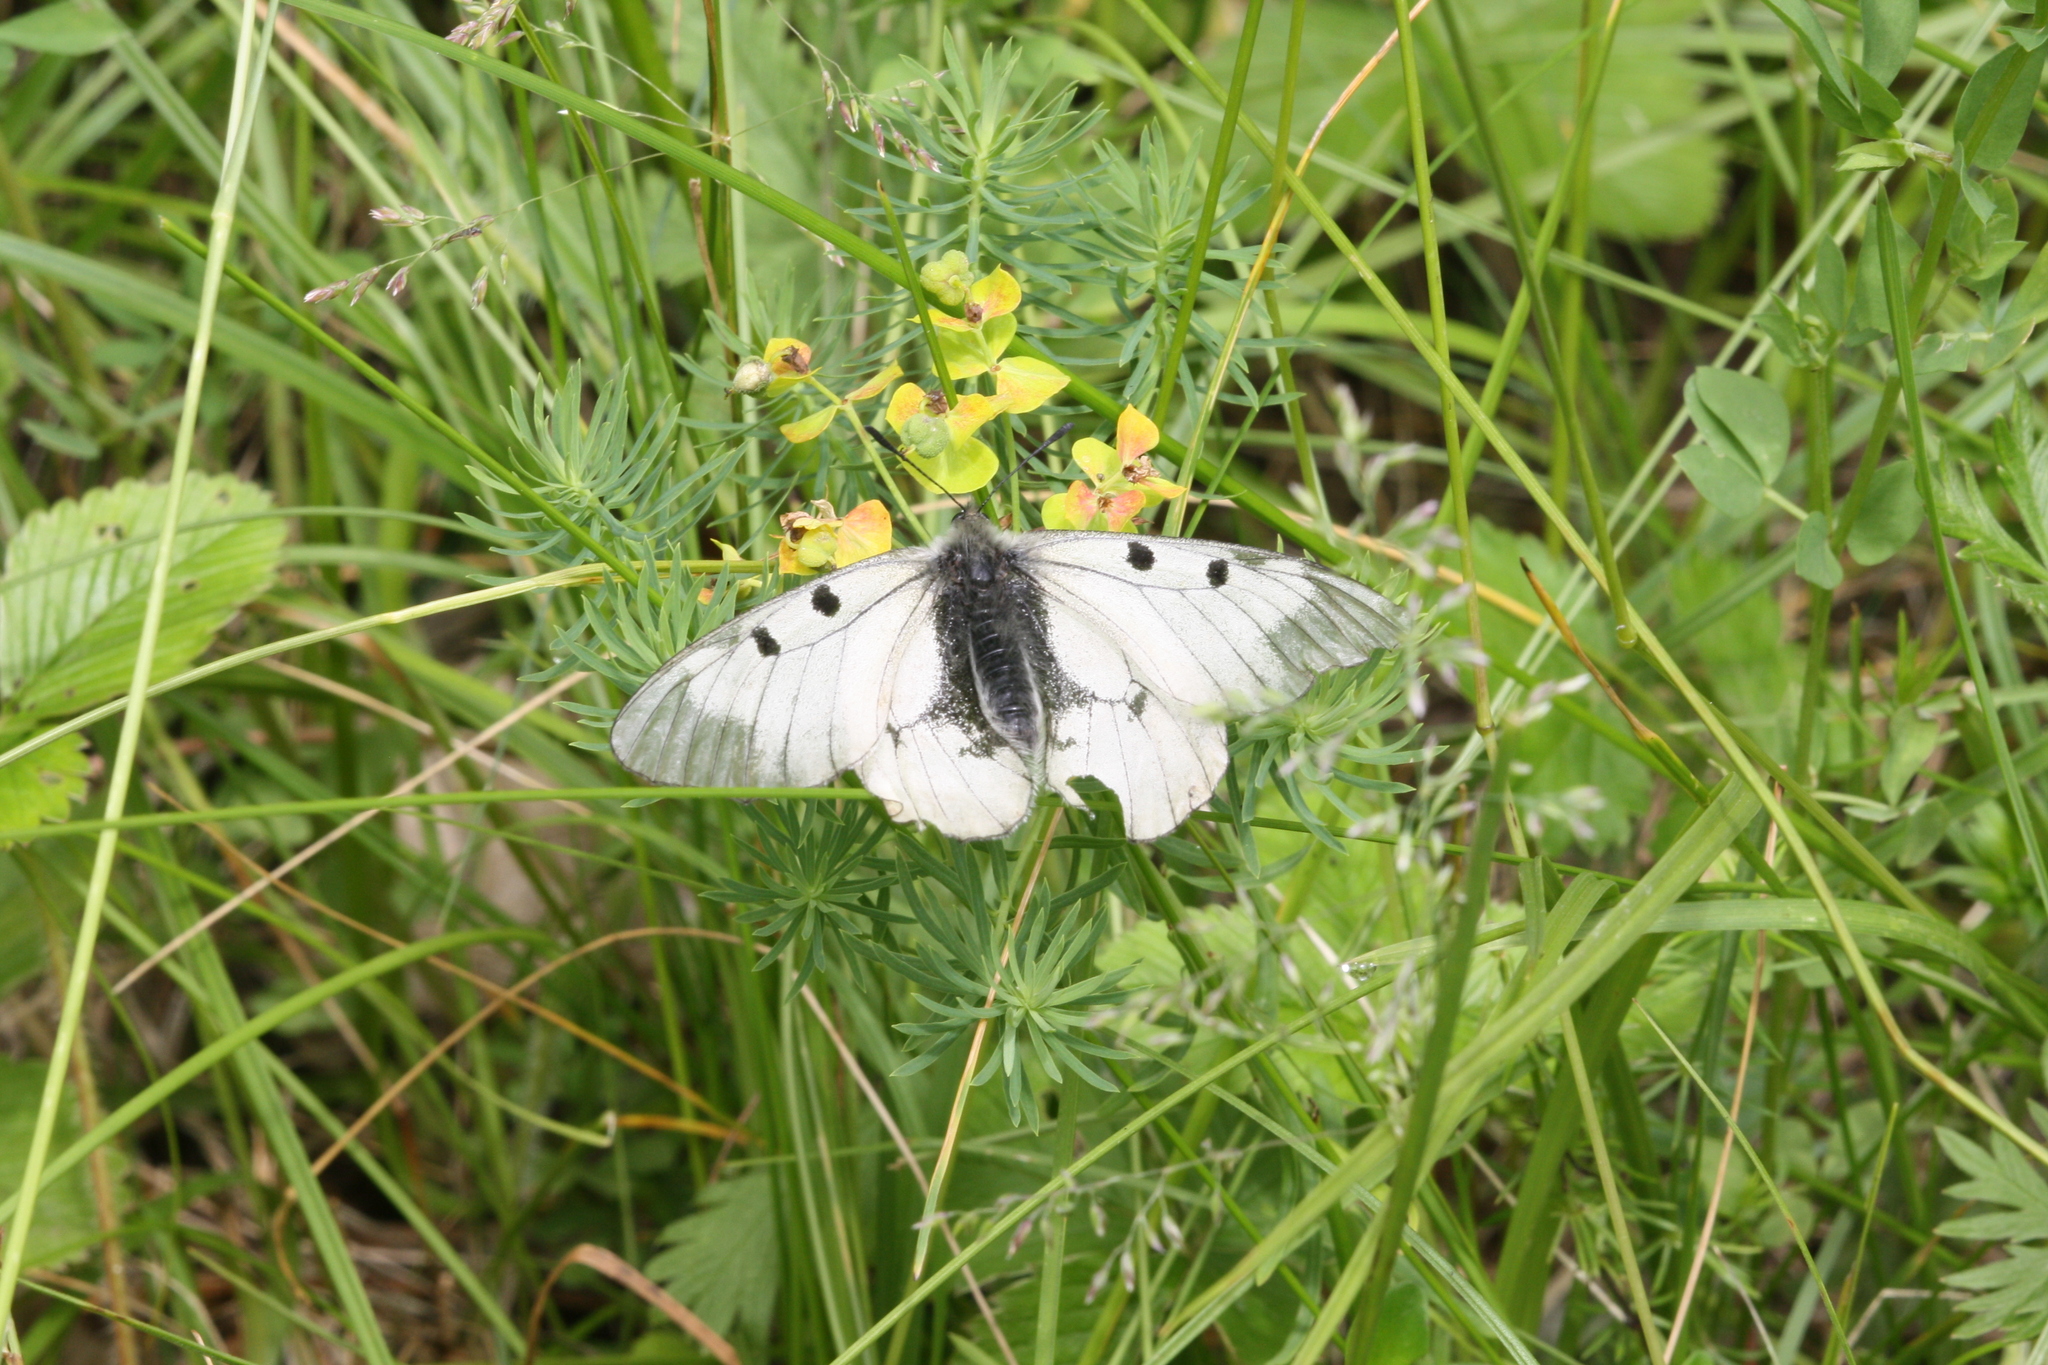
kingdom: Animalia
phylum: Arthropoda
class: Insecta
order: Lepidoptera
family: Papilionidae
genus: Parnassius
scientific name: Parnassius mnemosyne
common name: Clouded apollo
